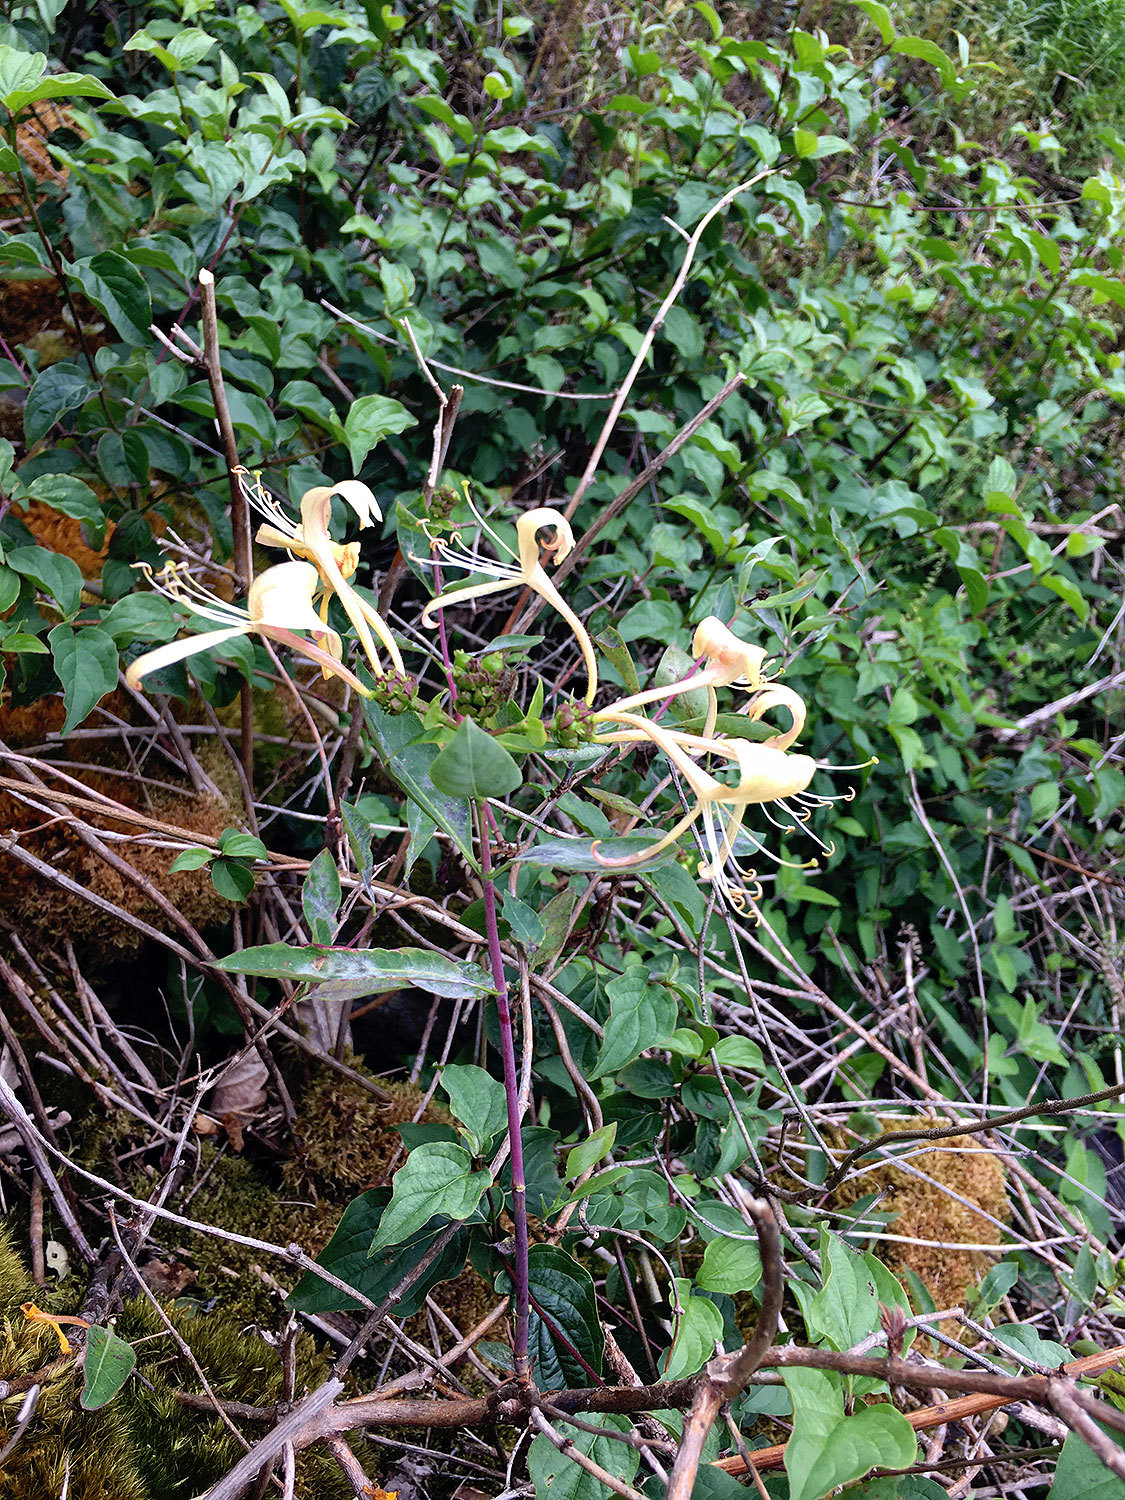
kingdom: Plantae
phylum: Tracheophyta
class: Magnoliopsida
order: Dipsacales
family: Caprifoliaceae
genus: Lonicera
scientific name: Lonicera periclymenum
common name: European honeysuckle
